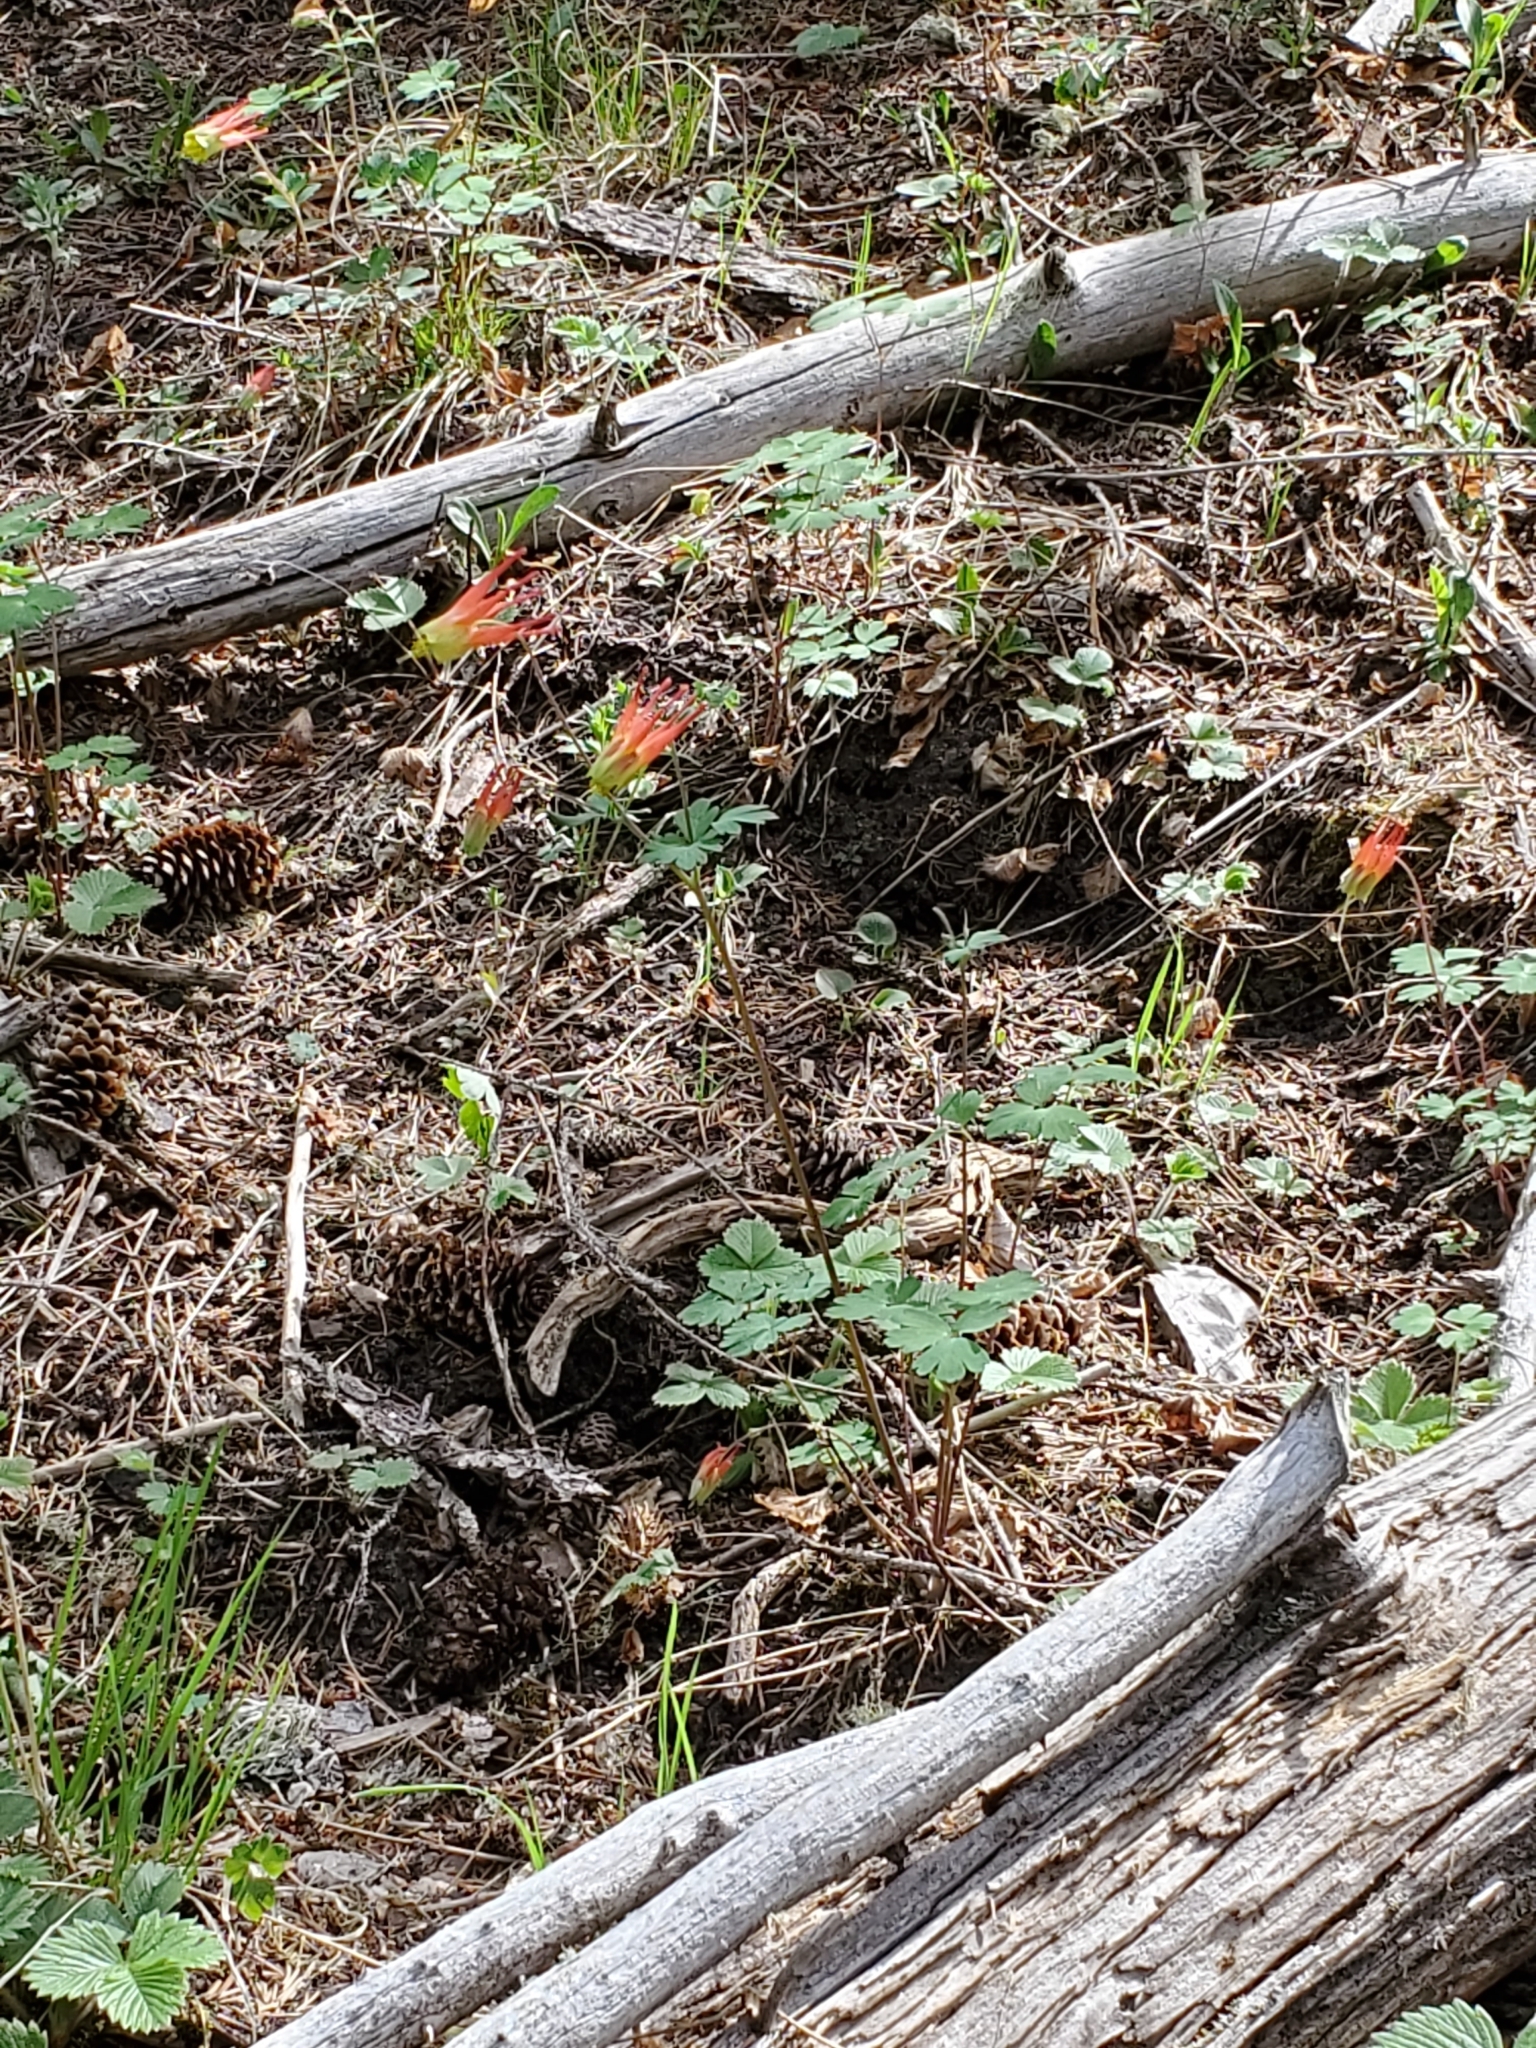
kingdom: Plantae
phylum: Tracheophyta
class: Magnoliopsida
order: Ranunculales
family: Ranunculaceae
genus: Aquilegia
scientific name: Aquilegia elegantula
